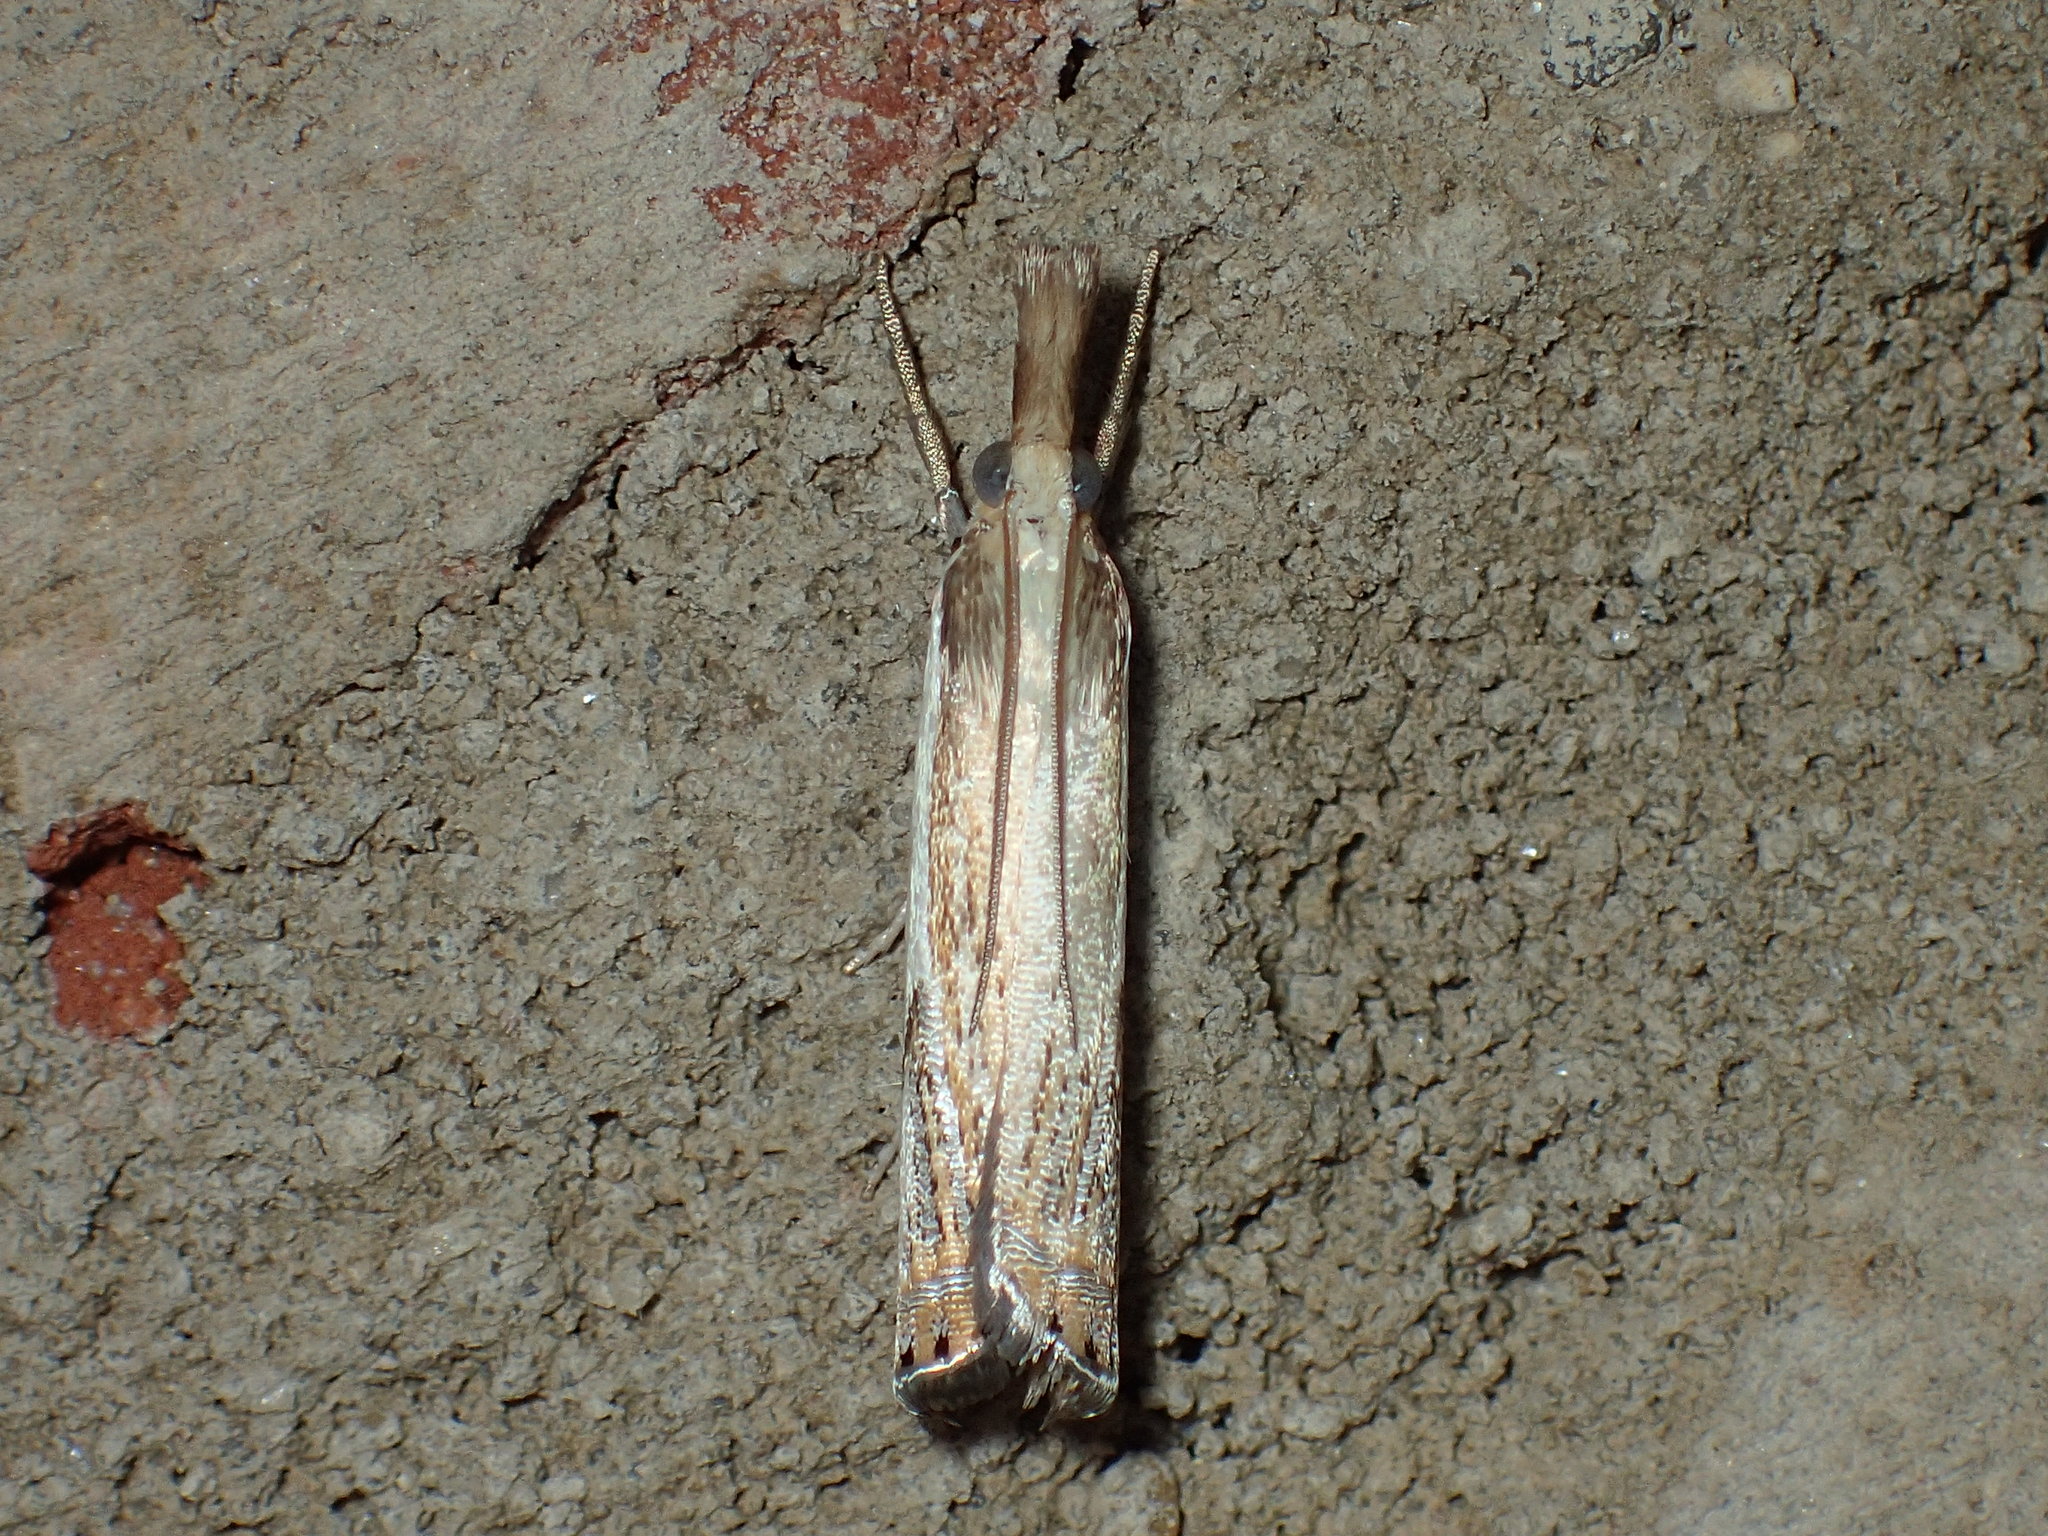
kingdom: Animalia
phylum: Arthropoda
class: Insecta
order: Lepidoptera
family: Crambidae
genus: Crambus
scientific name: Crambus
